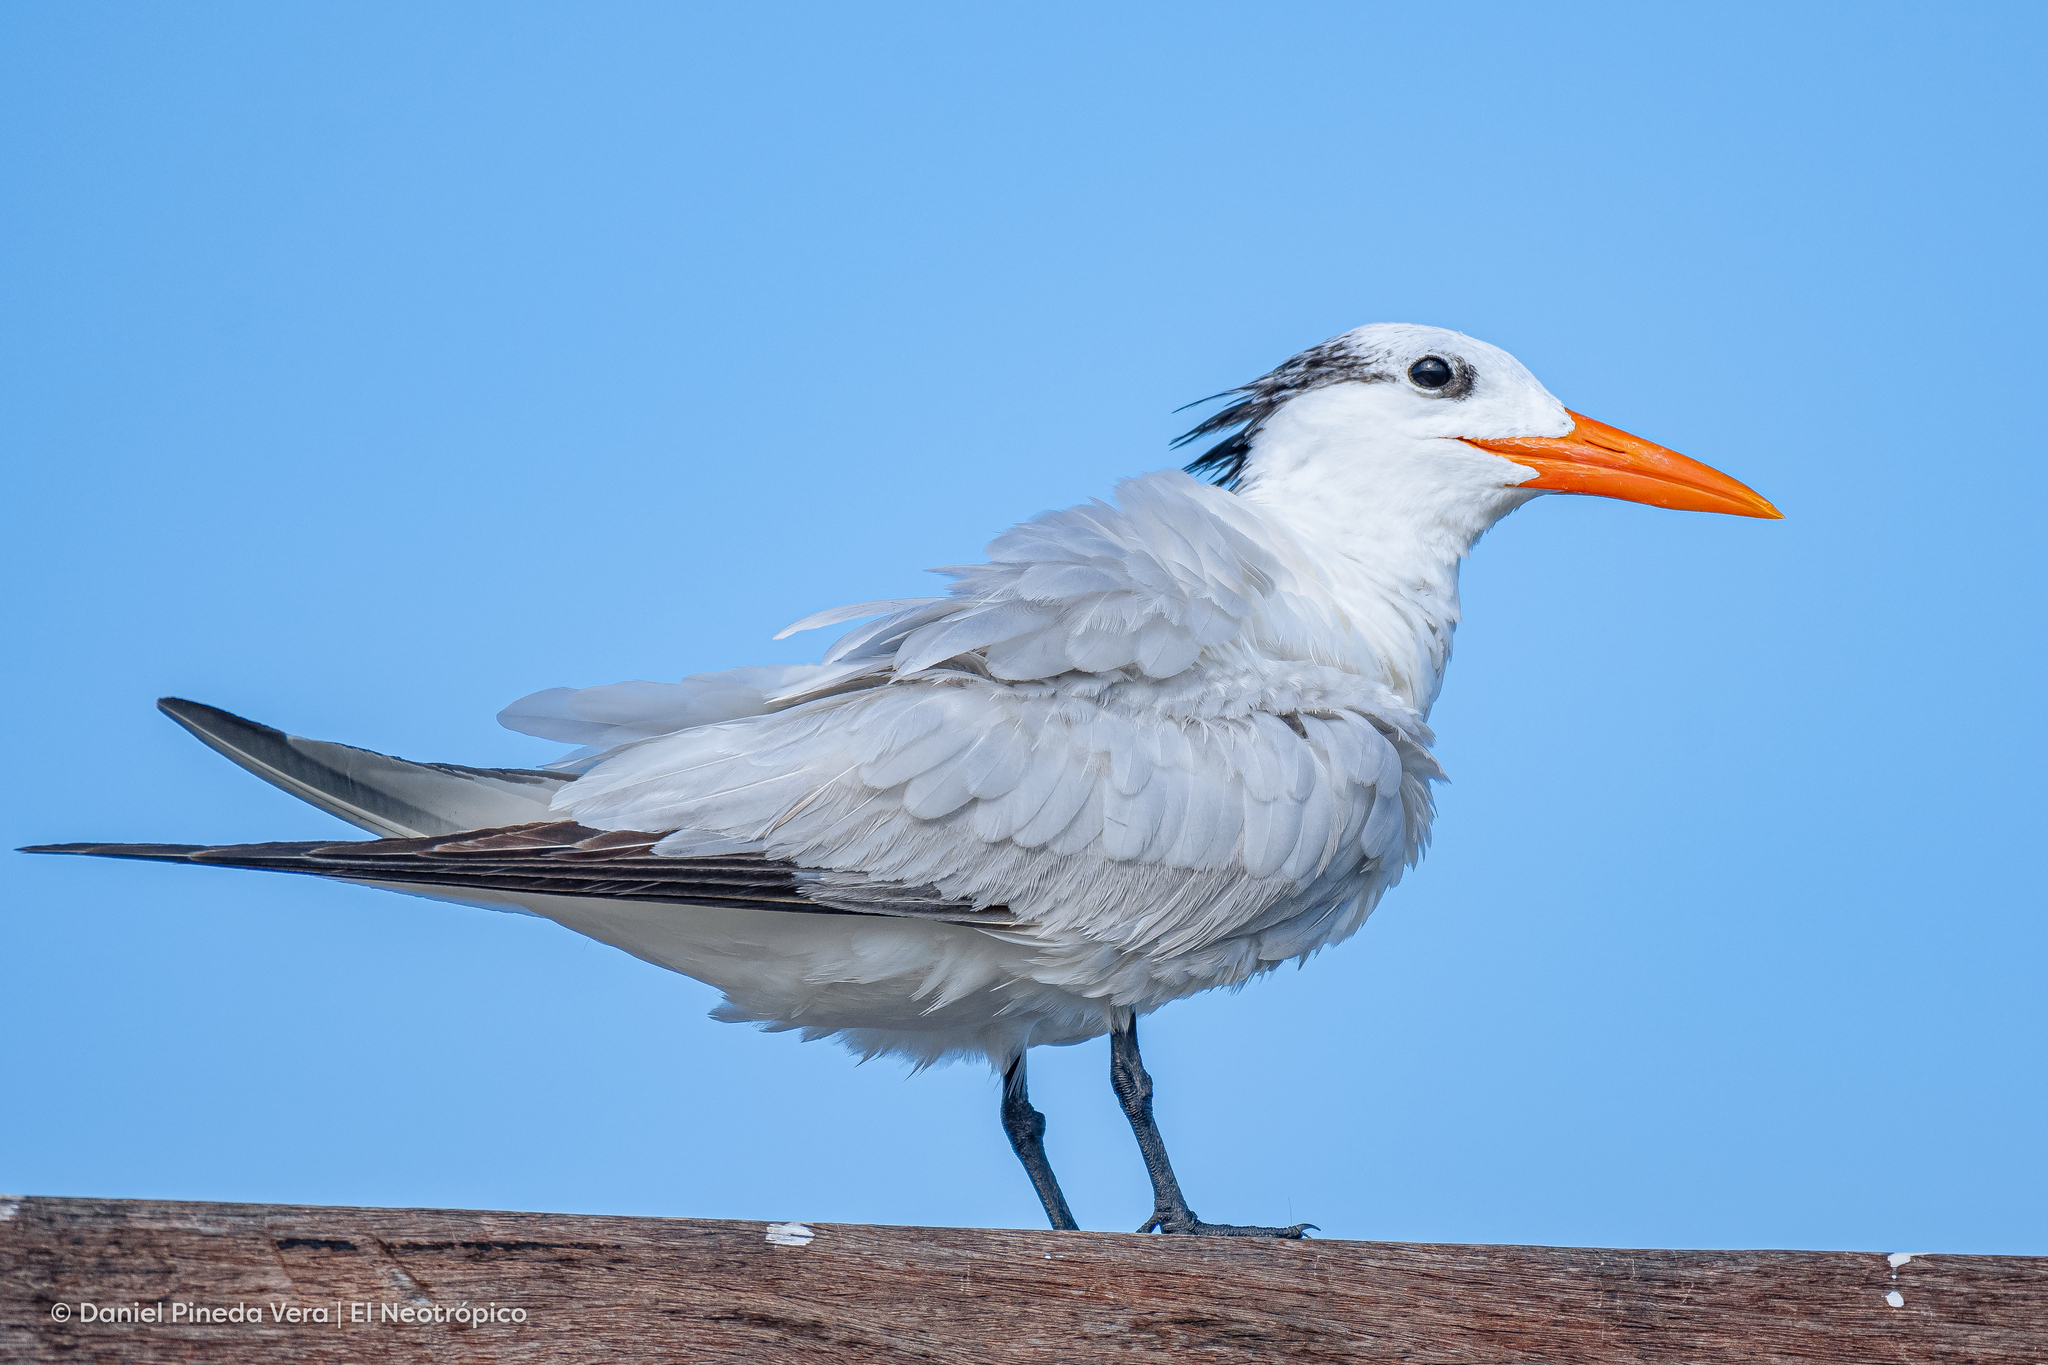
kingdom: Animalia
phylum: Chordata
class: Aves
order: Charadriiformes
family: Laridae
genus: Thalasseus
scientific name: Thalasseus maximus
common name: Royal tern
